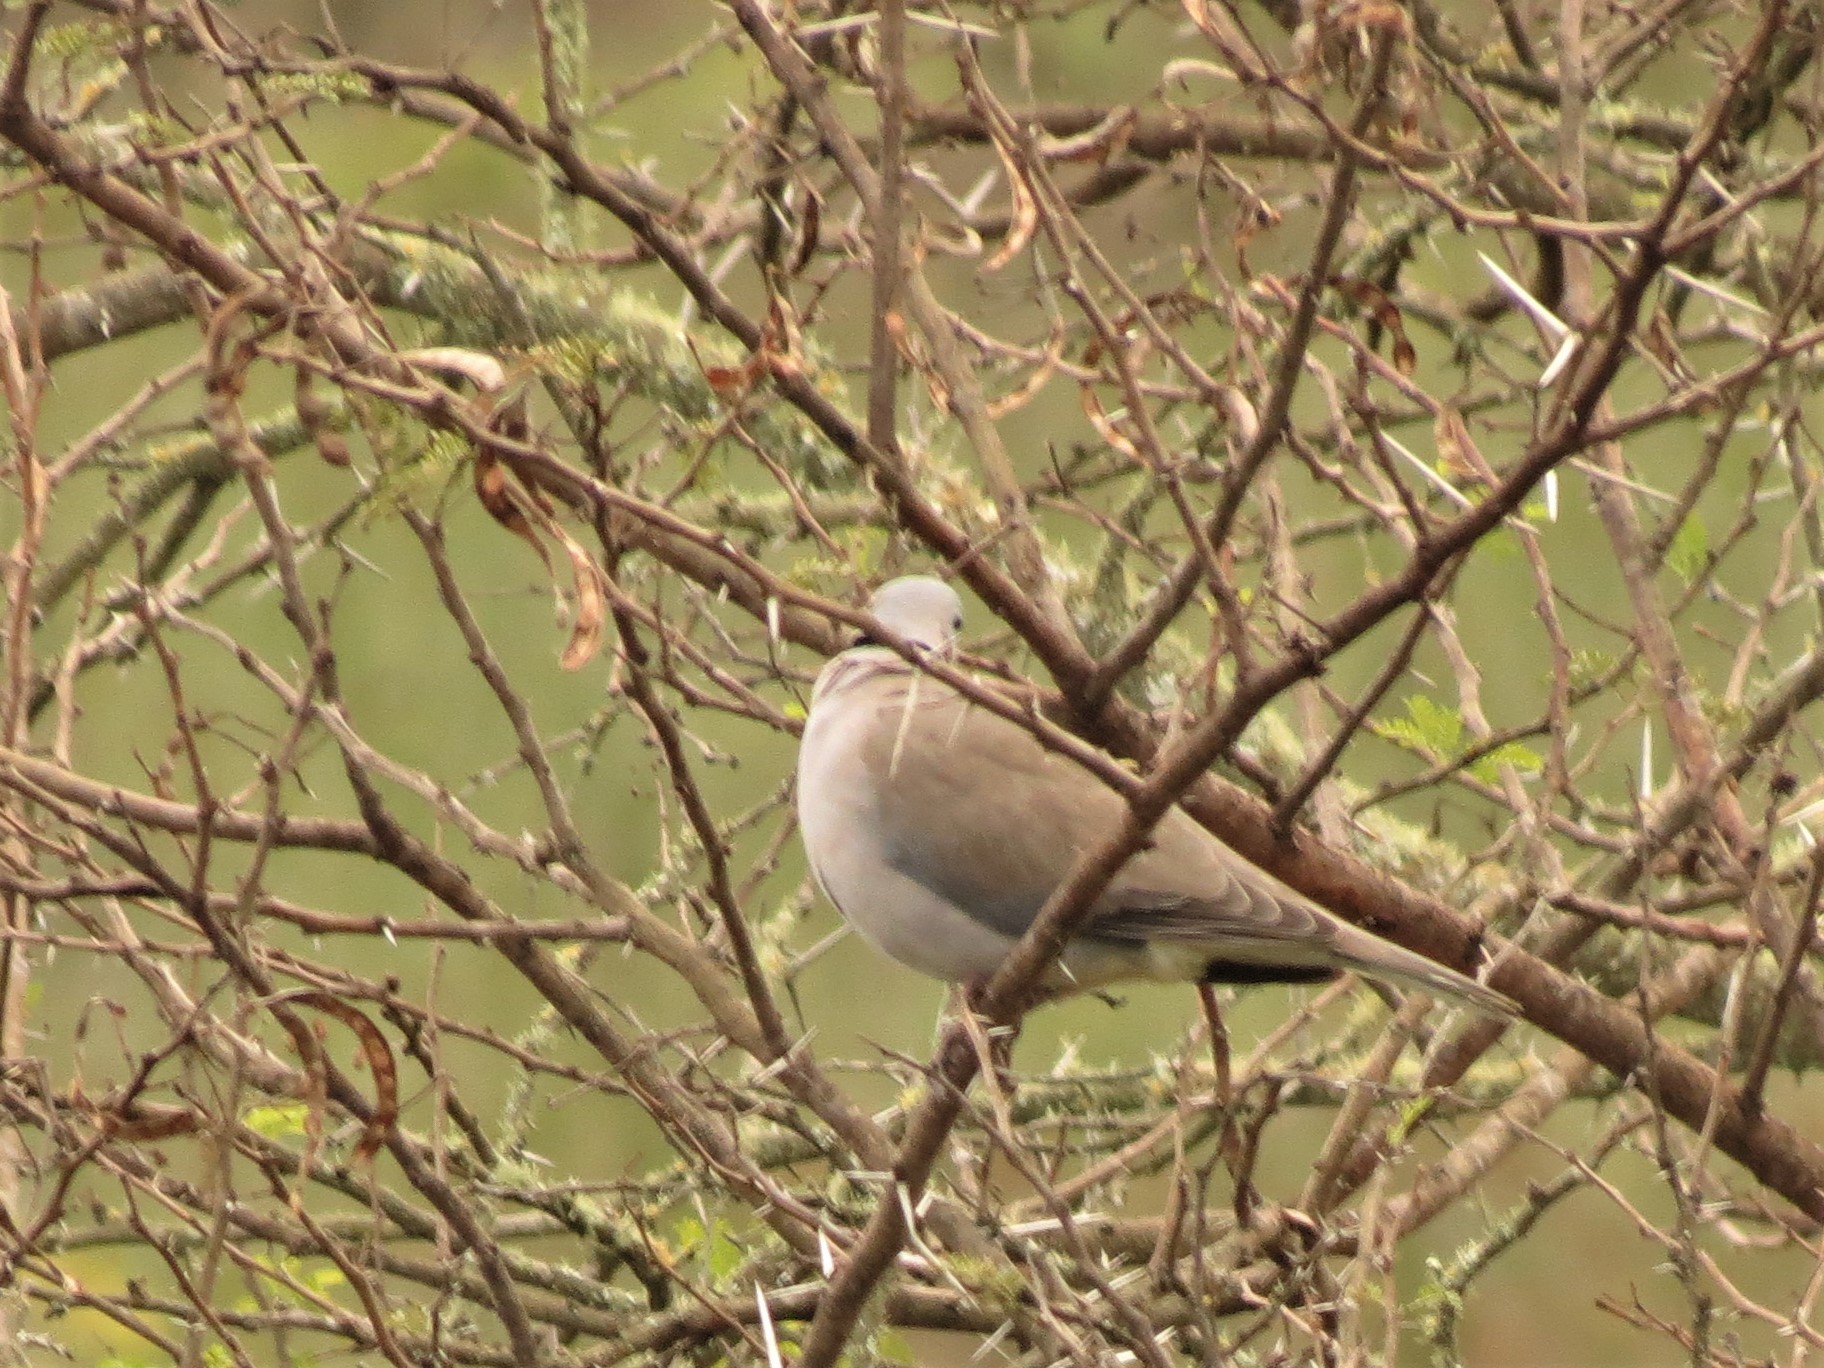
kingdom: Animalia
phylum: Chordata
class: Aves
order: Columbiformes
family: Columbidae
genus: Streptopelia
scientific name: Streptopelia capicola
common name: Ring-necked dove
